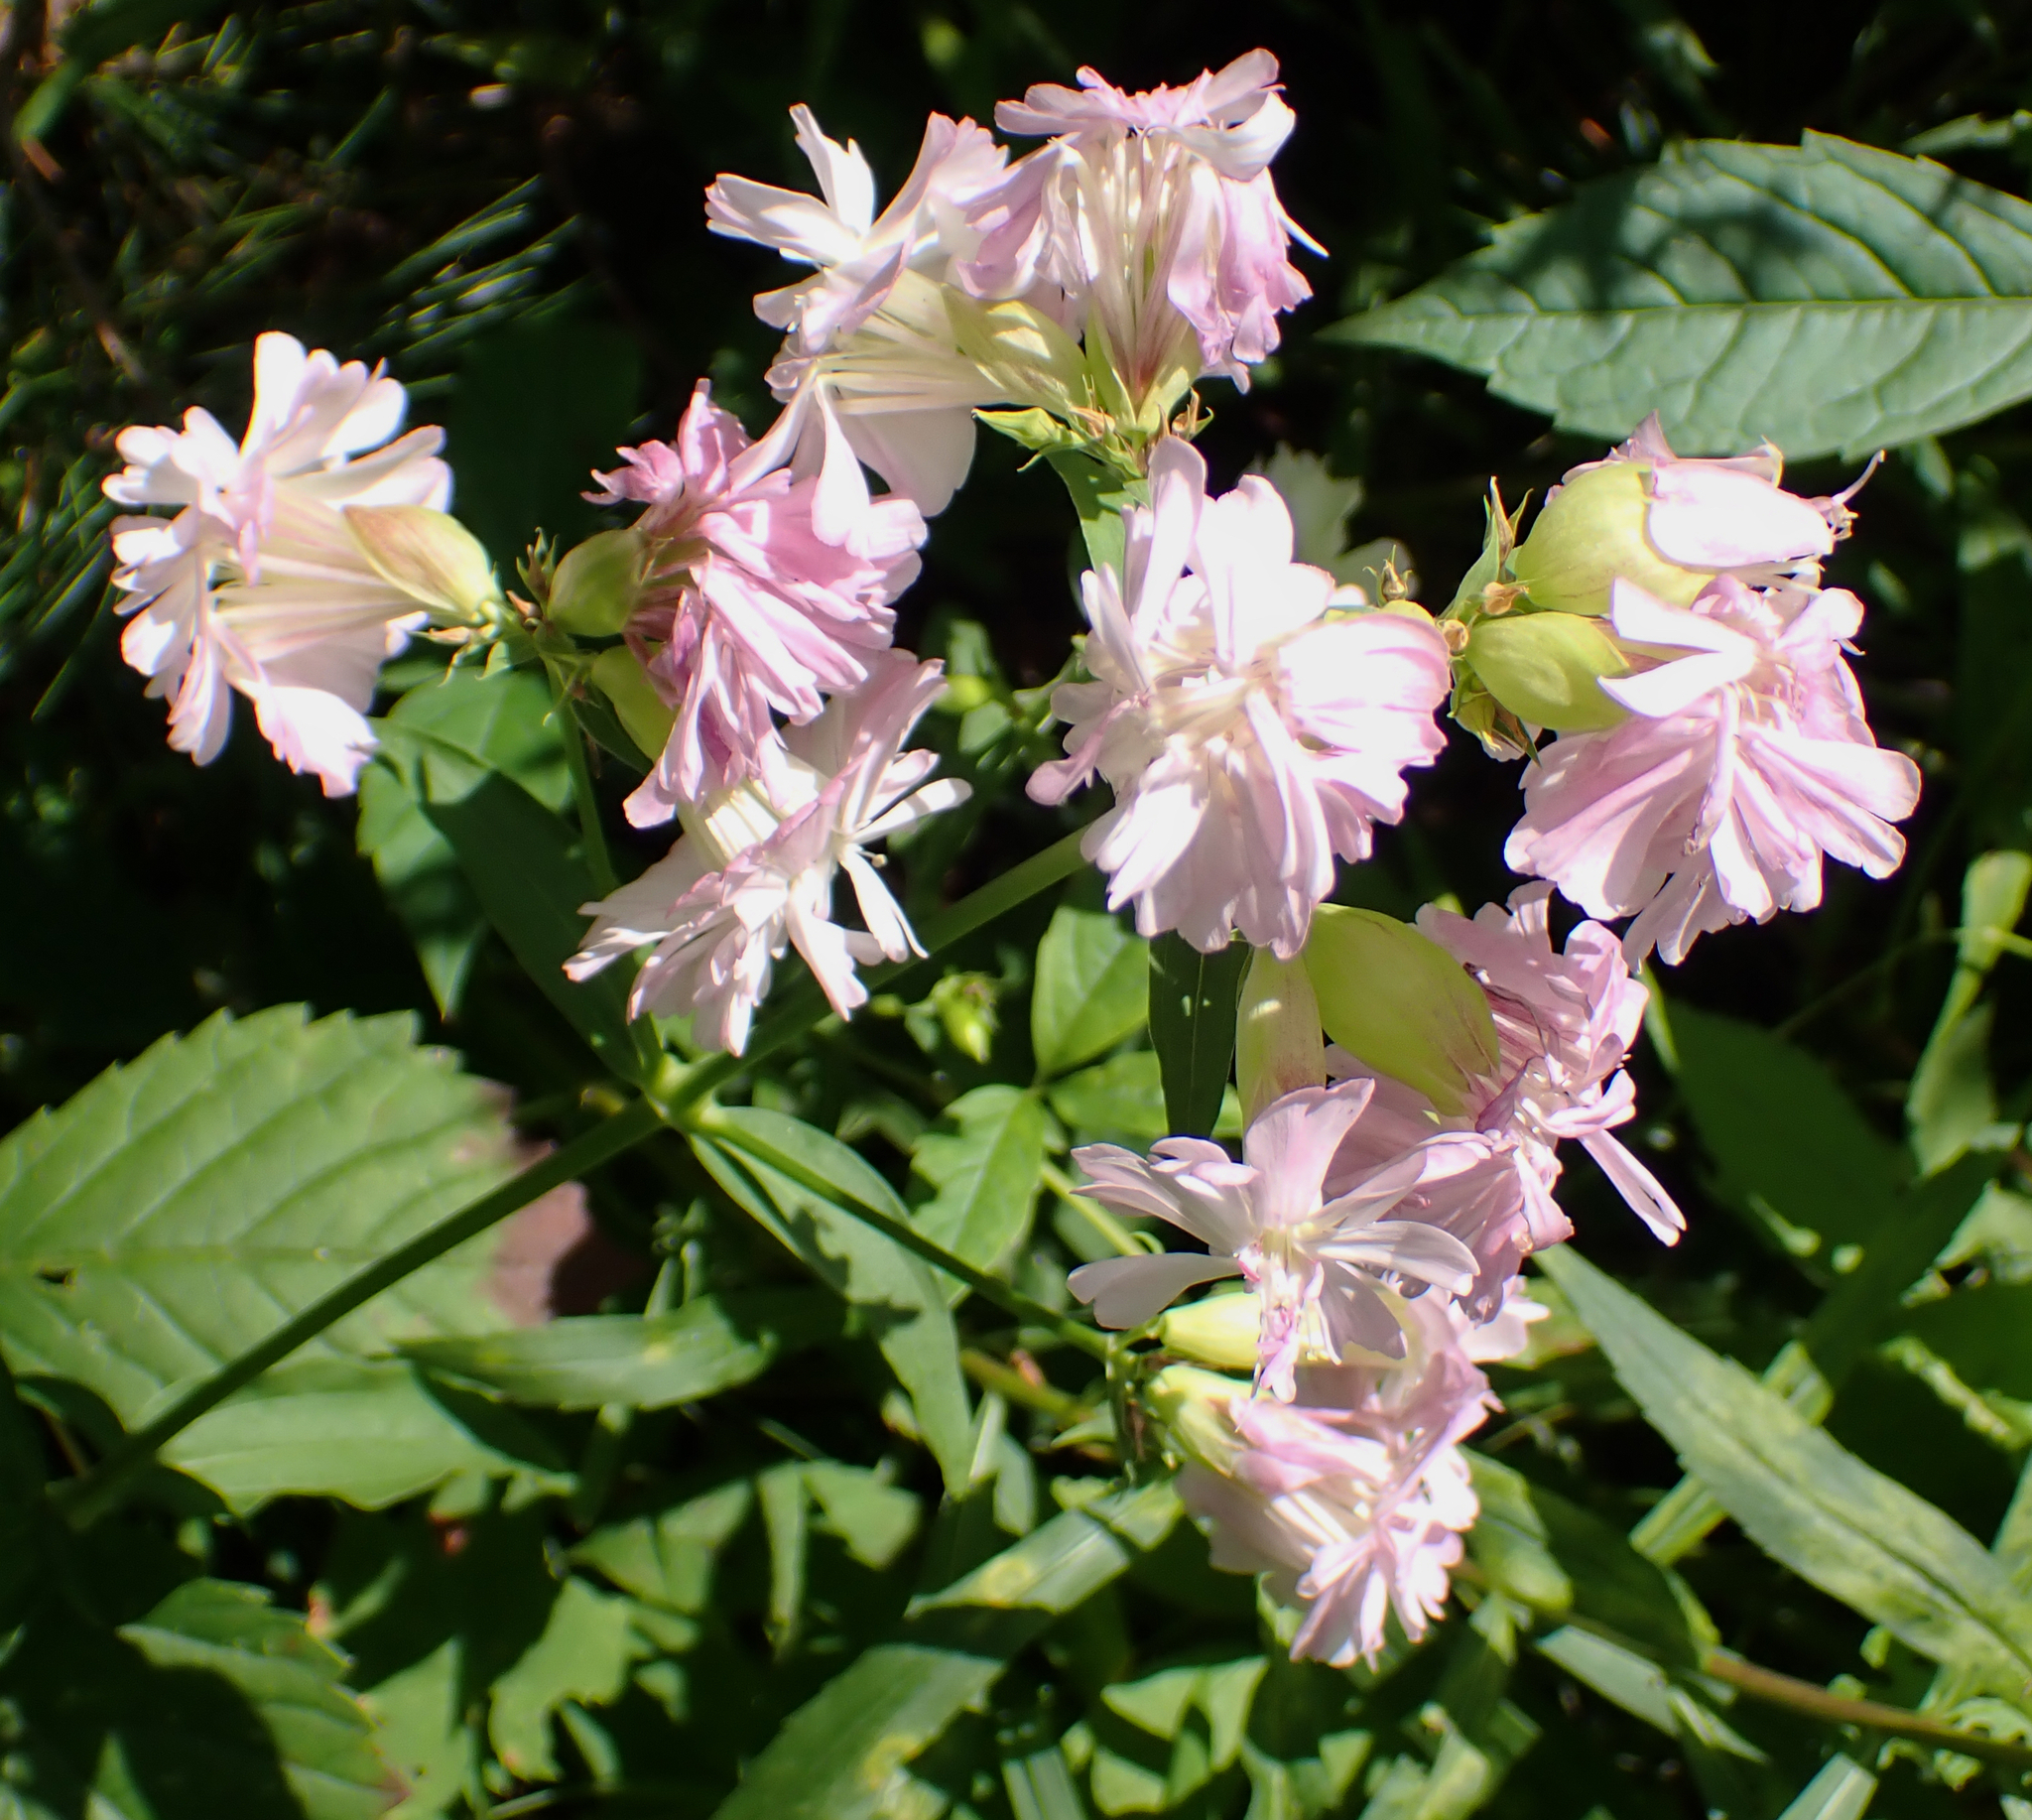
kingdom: Plantae
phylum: Tracheophyta
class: Magnoliopsida
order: Caryophyllales
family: Caryophyllaceae
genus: Saponaria
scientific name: Saponaria officinalis
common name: Soapwort
